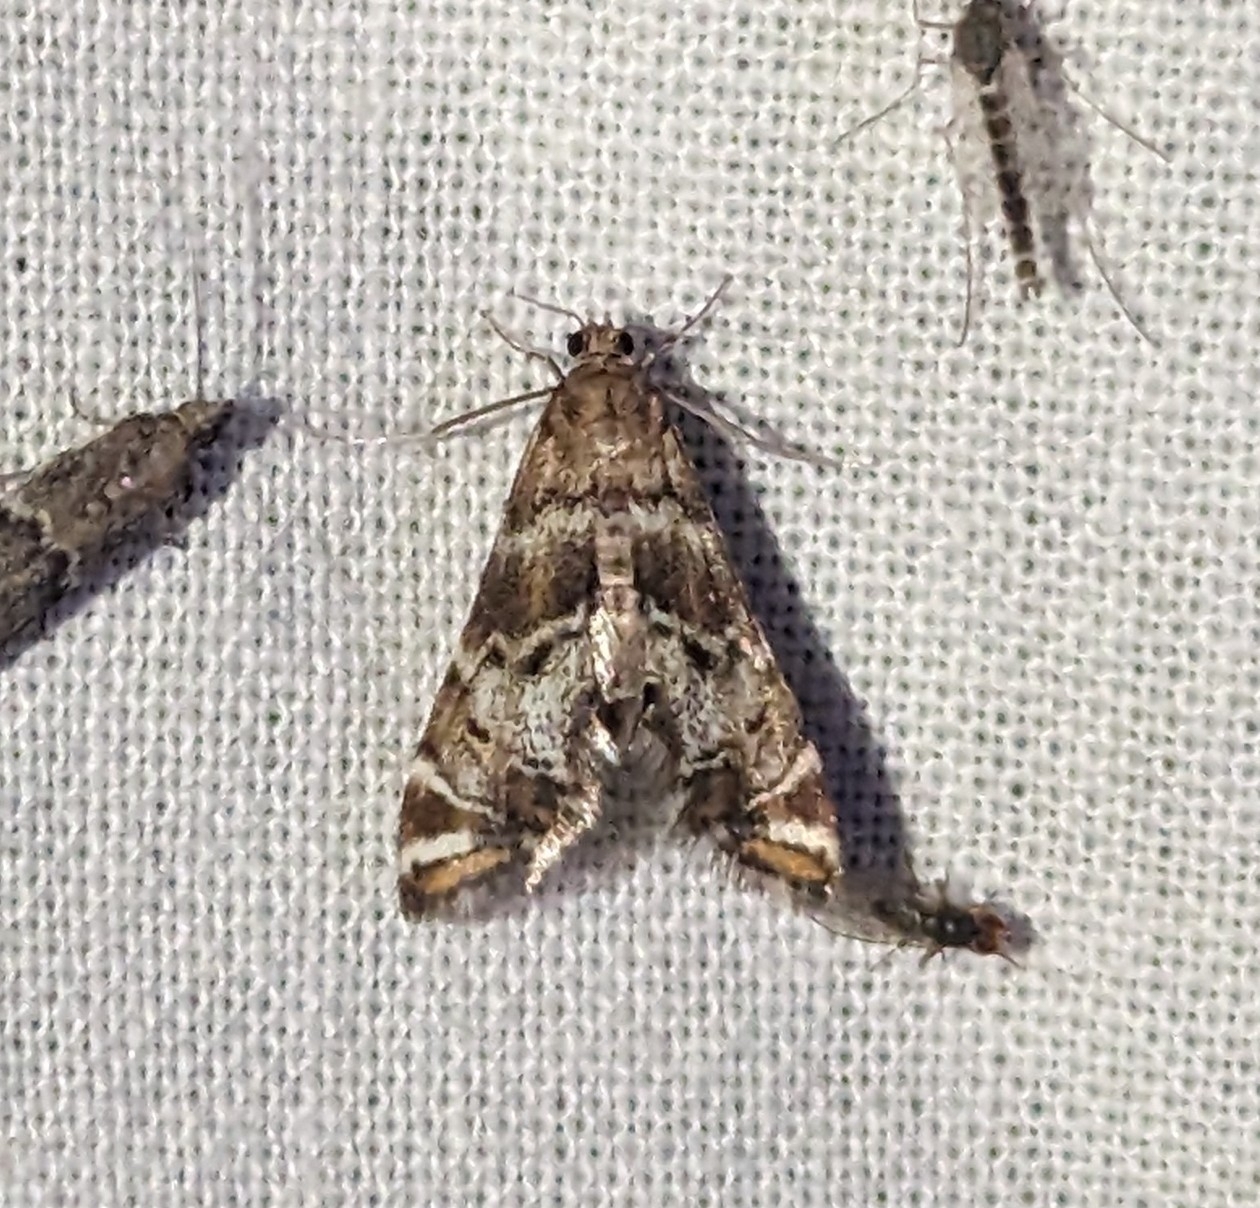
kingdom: Animalia
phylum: Arthropoda
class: Insecta
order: Lepidoptera
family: Crambidae
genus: Petrophila
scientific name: Petrophila confusalis
